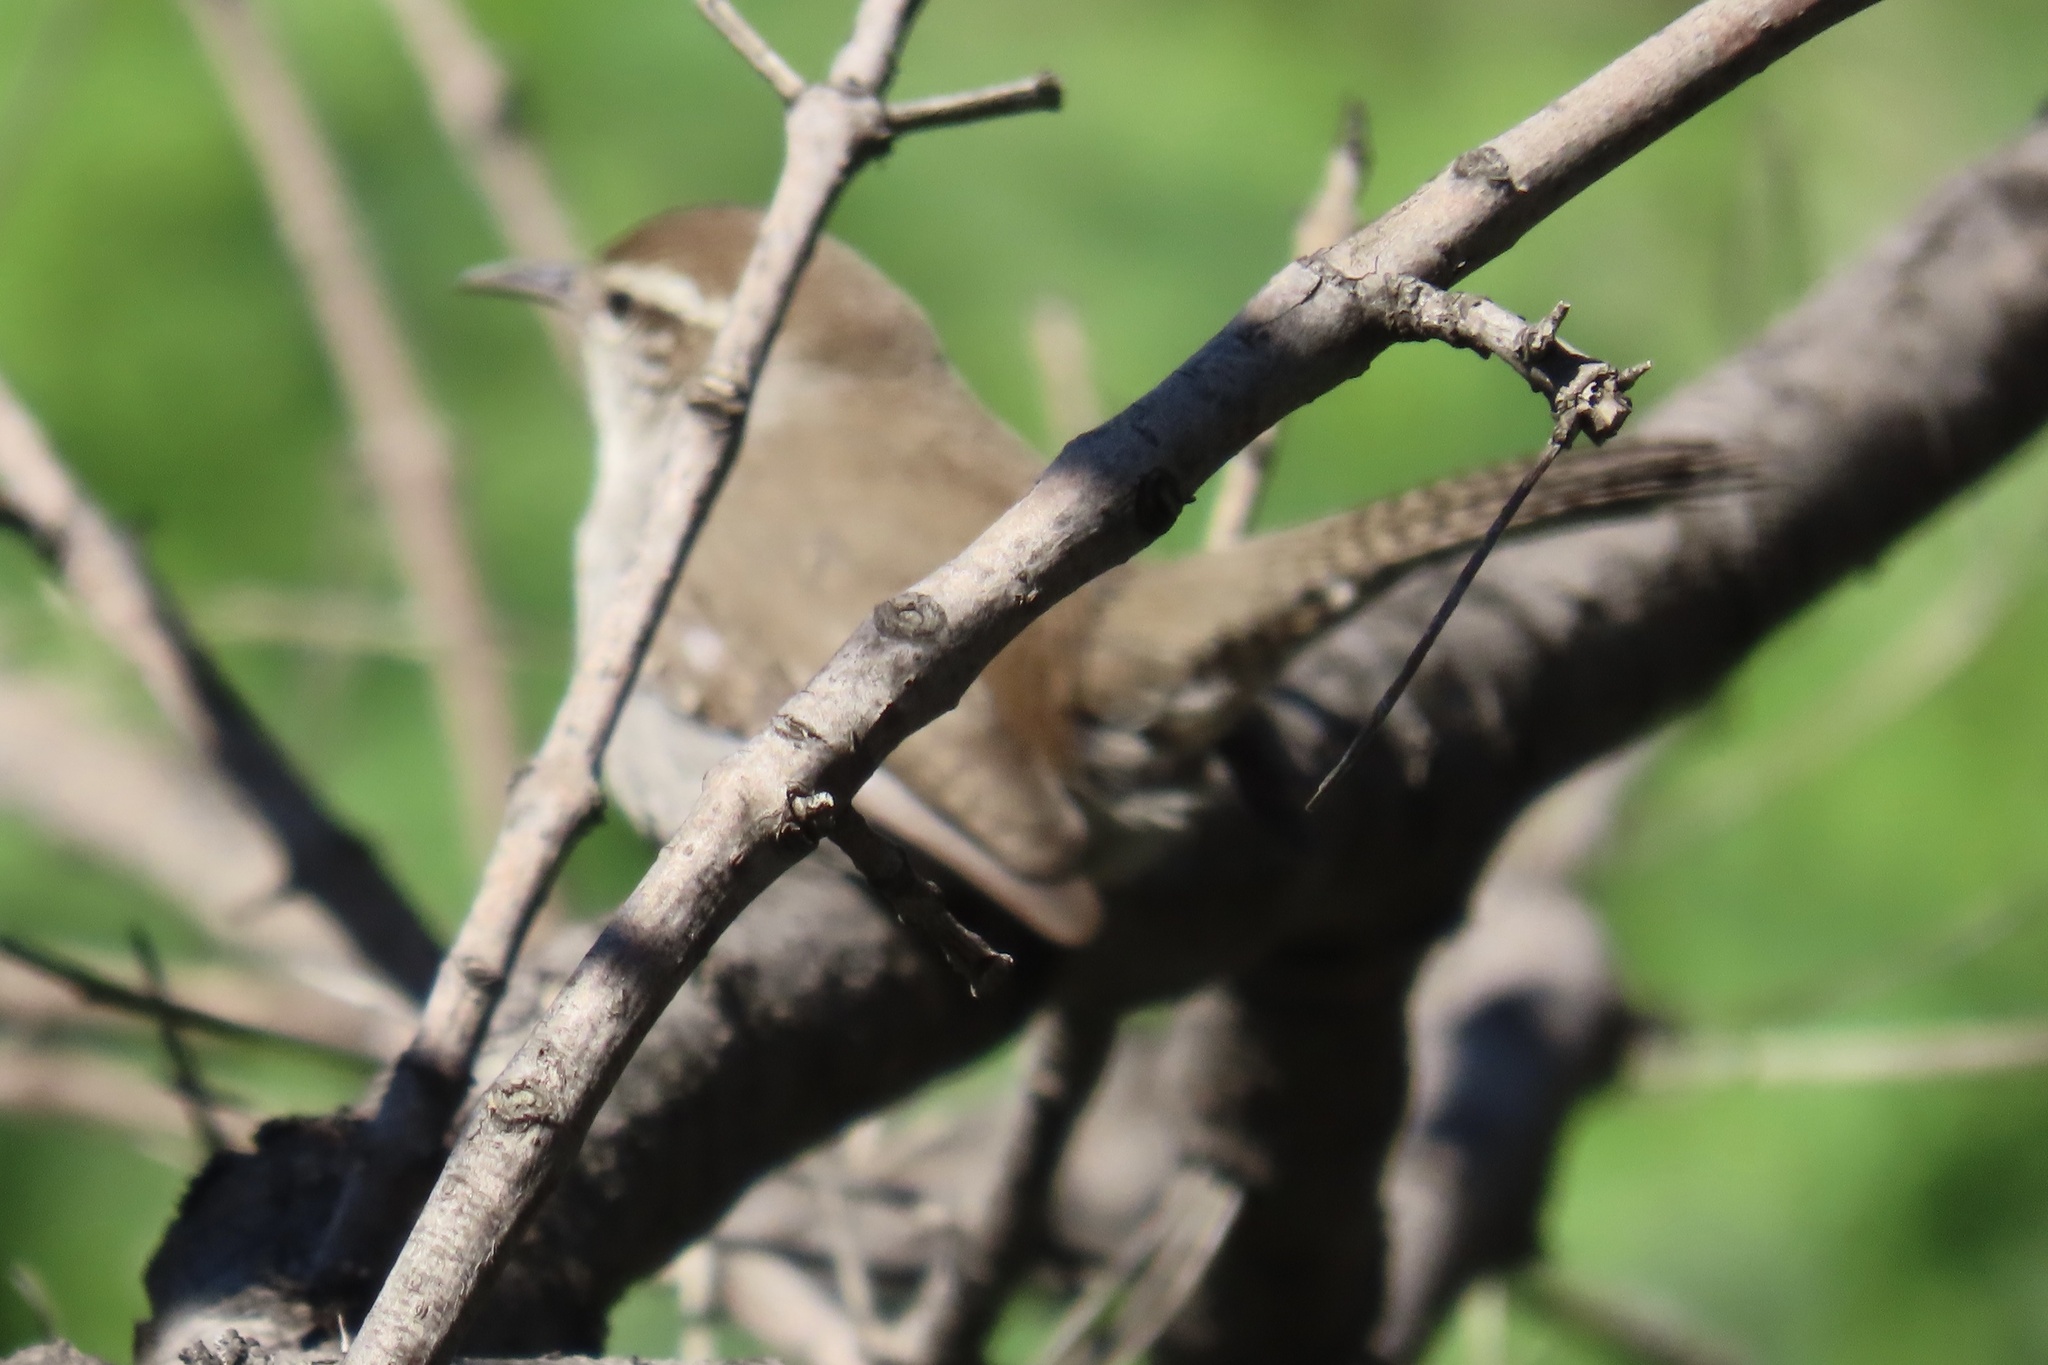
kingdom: Animalia
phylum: Chordata
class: Aves
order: Passeriformes
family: Troglodytidae
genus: Thryomanes
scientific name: Thryomanes bewickii
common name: Bewick's wren
